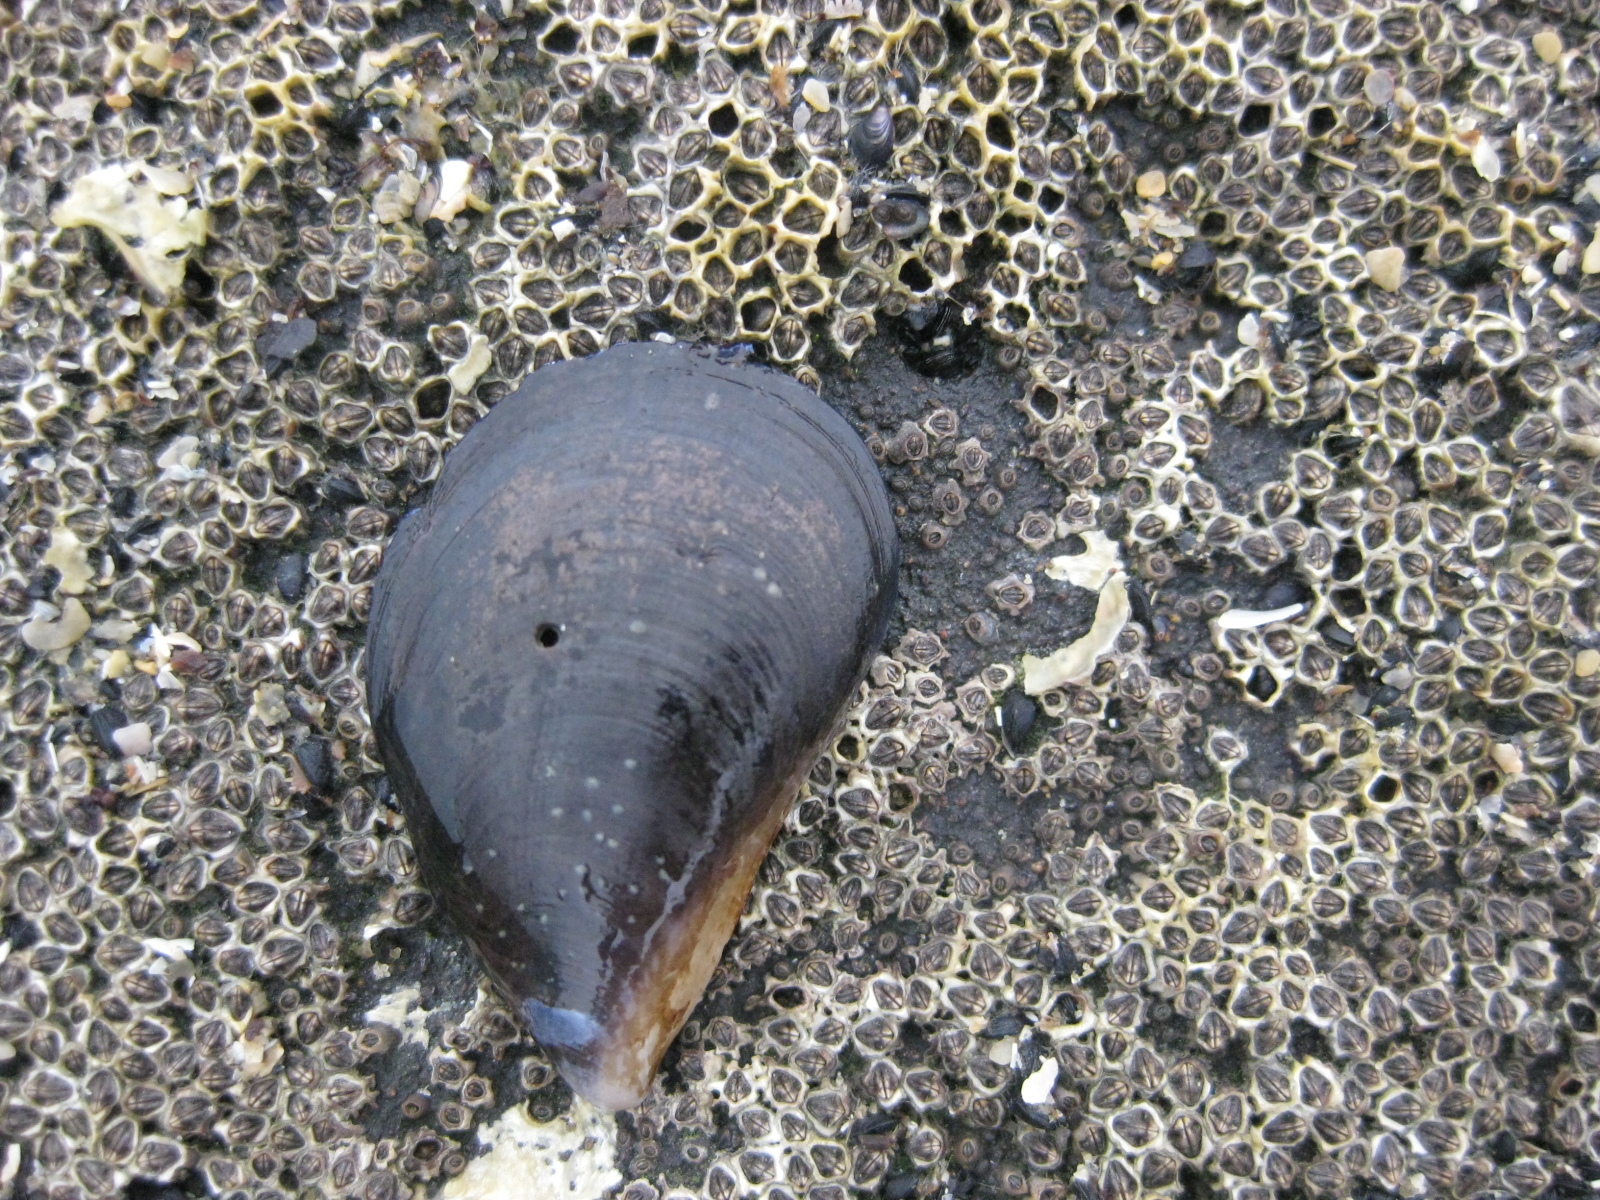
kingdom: Animalia
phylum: Mollusca
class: Bivalvia
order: Mytilida
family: Mytilidae
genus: Mytilus
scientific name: Mytilus planulatus
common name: Australian mussel
